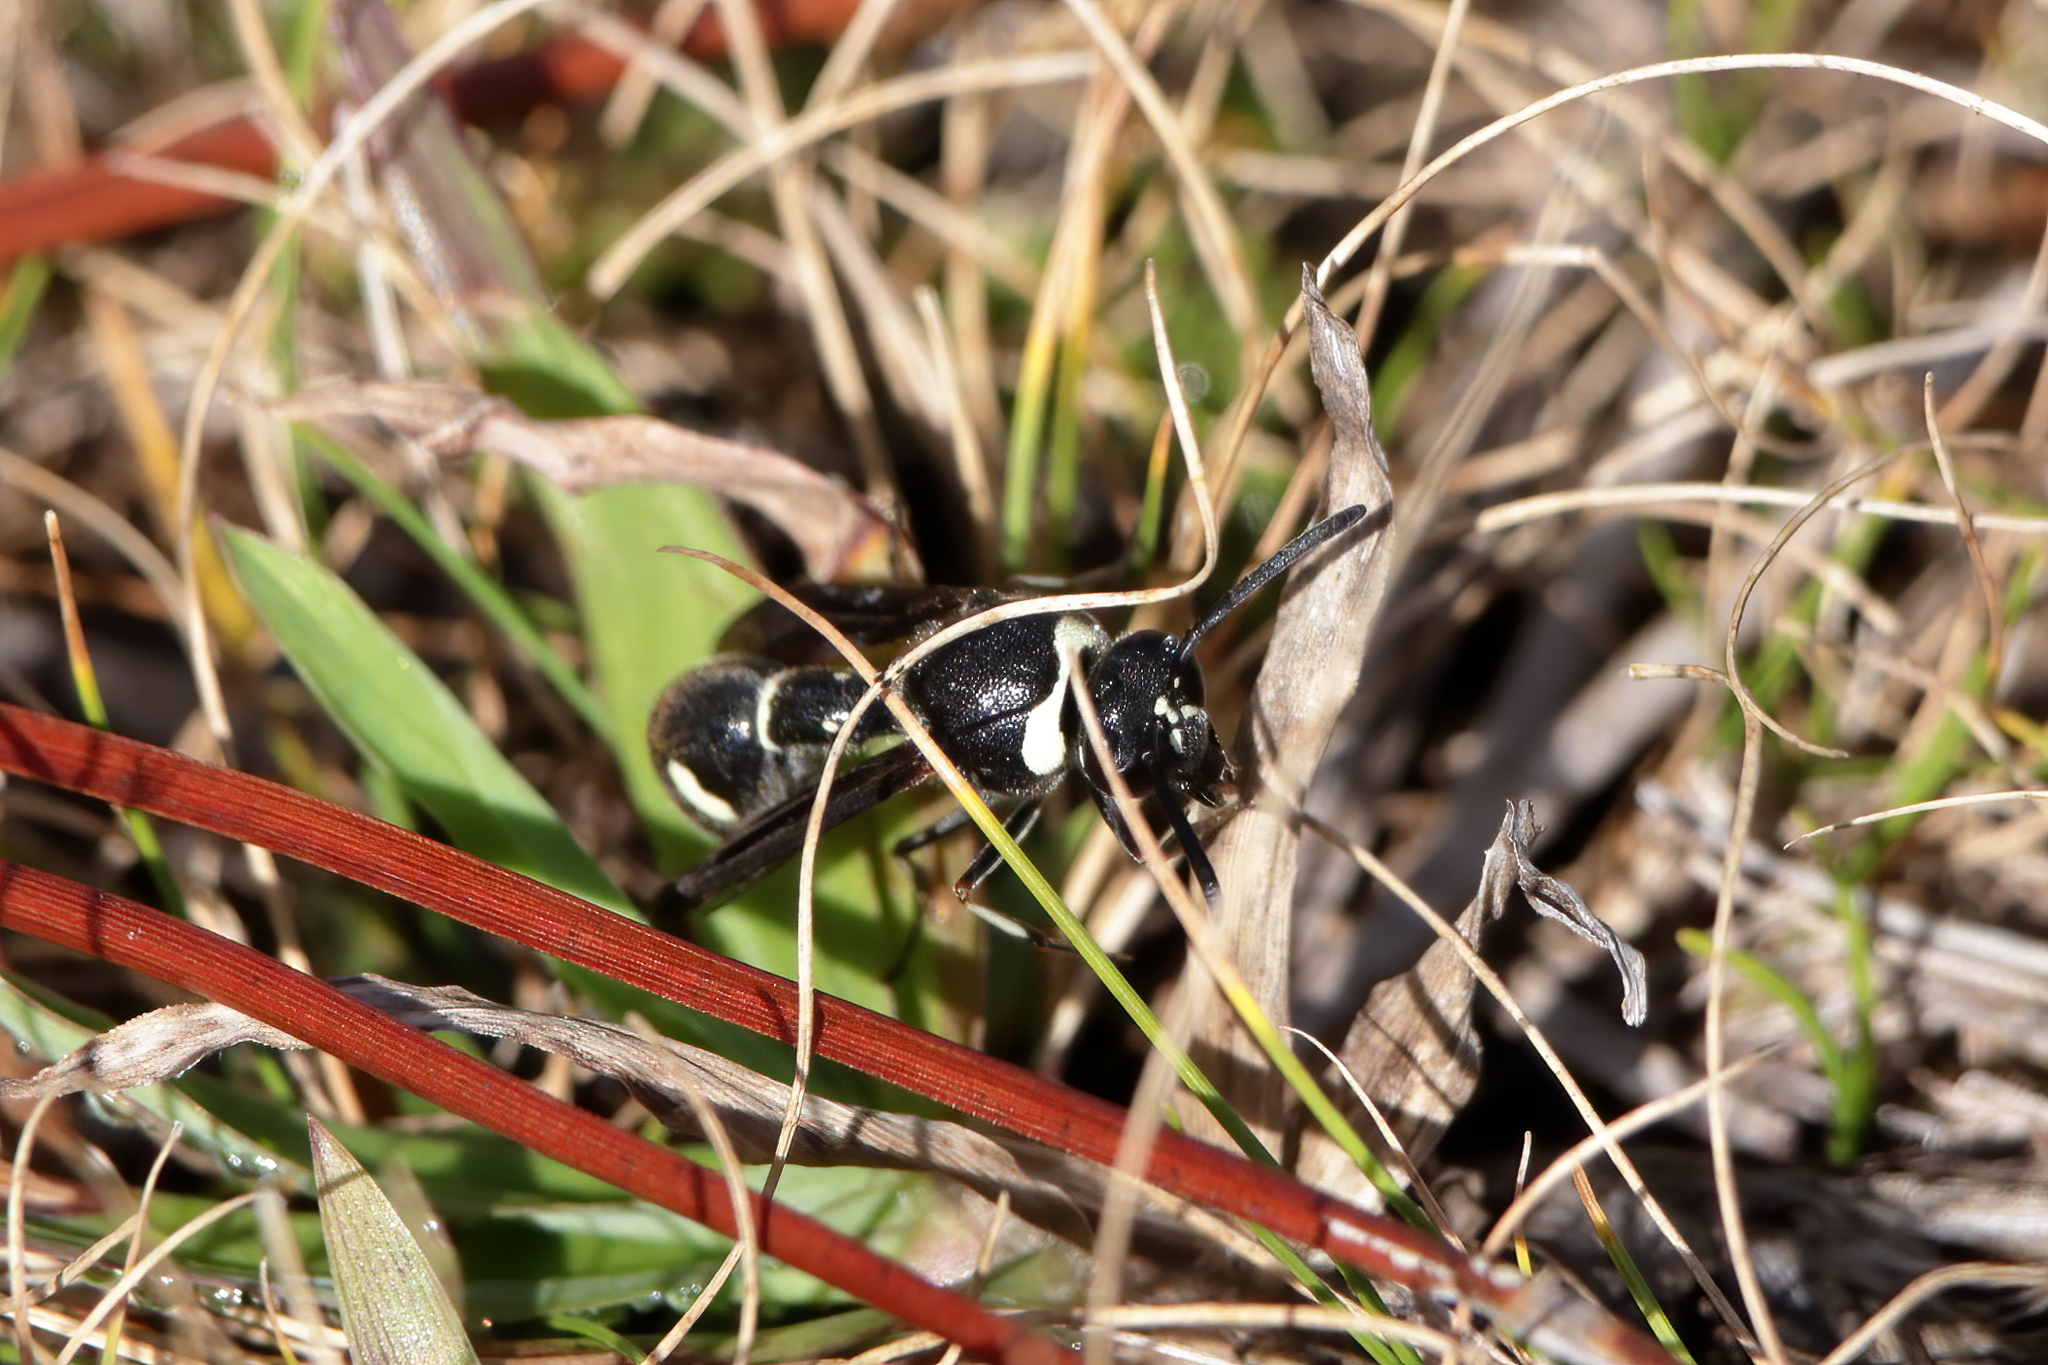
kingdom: Animalia
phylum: Arthropoda
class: Insecta
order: Hymenoptera
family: Vespidae
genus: Eumenes
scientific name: Eumenes fraternus
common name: Fraternal potter wasp
